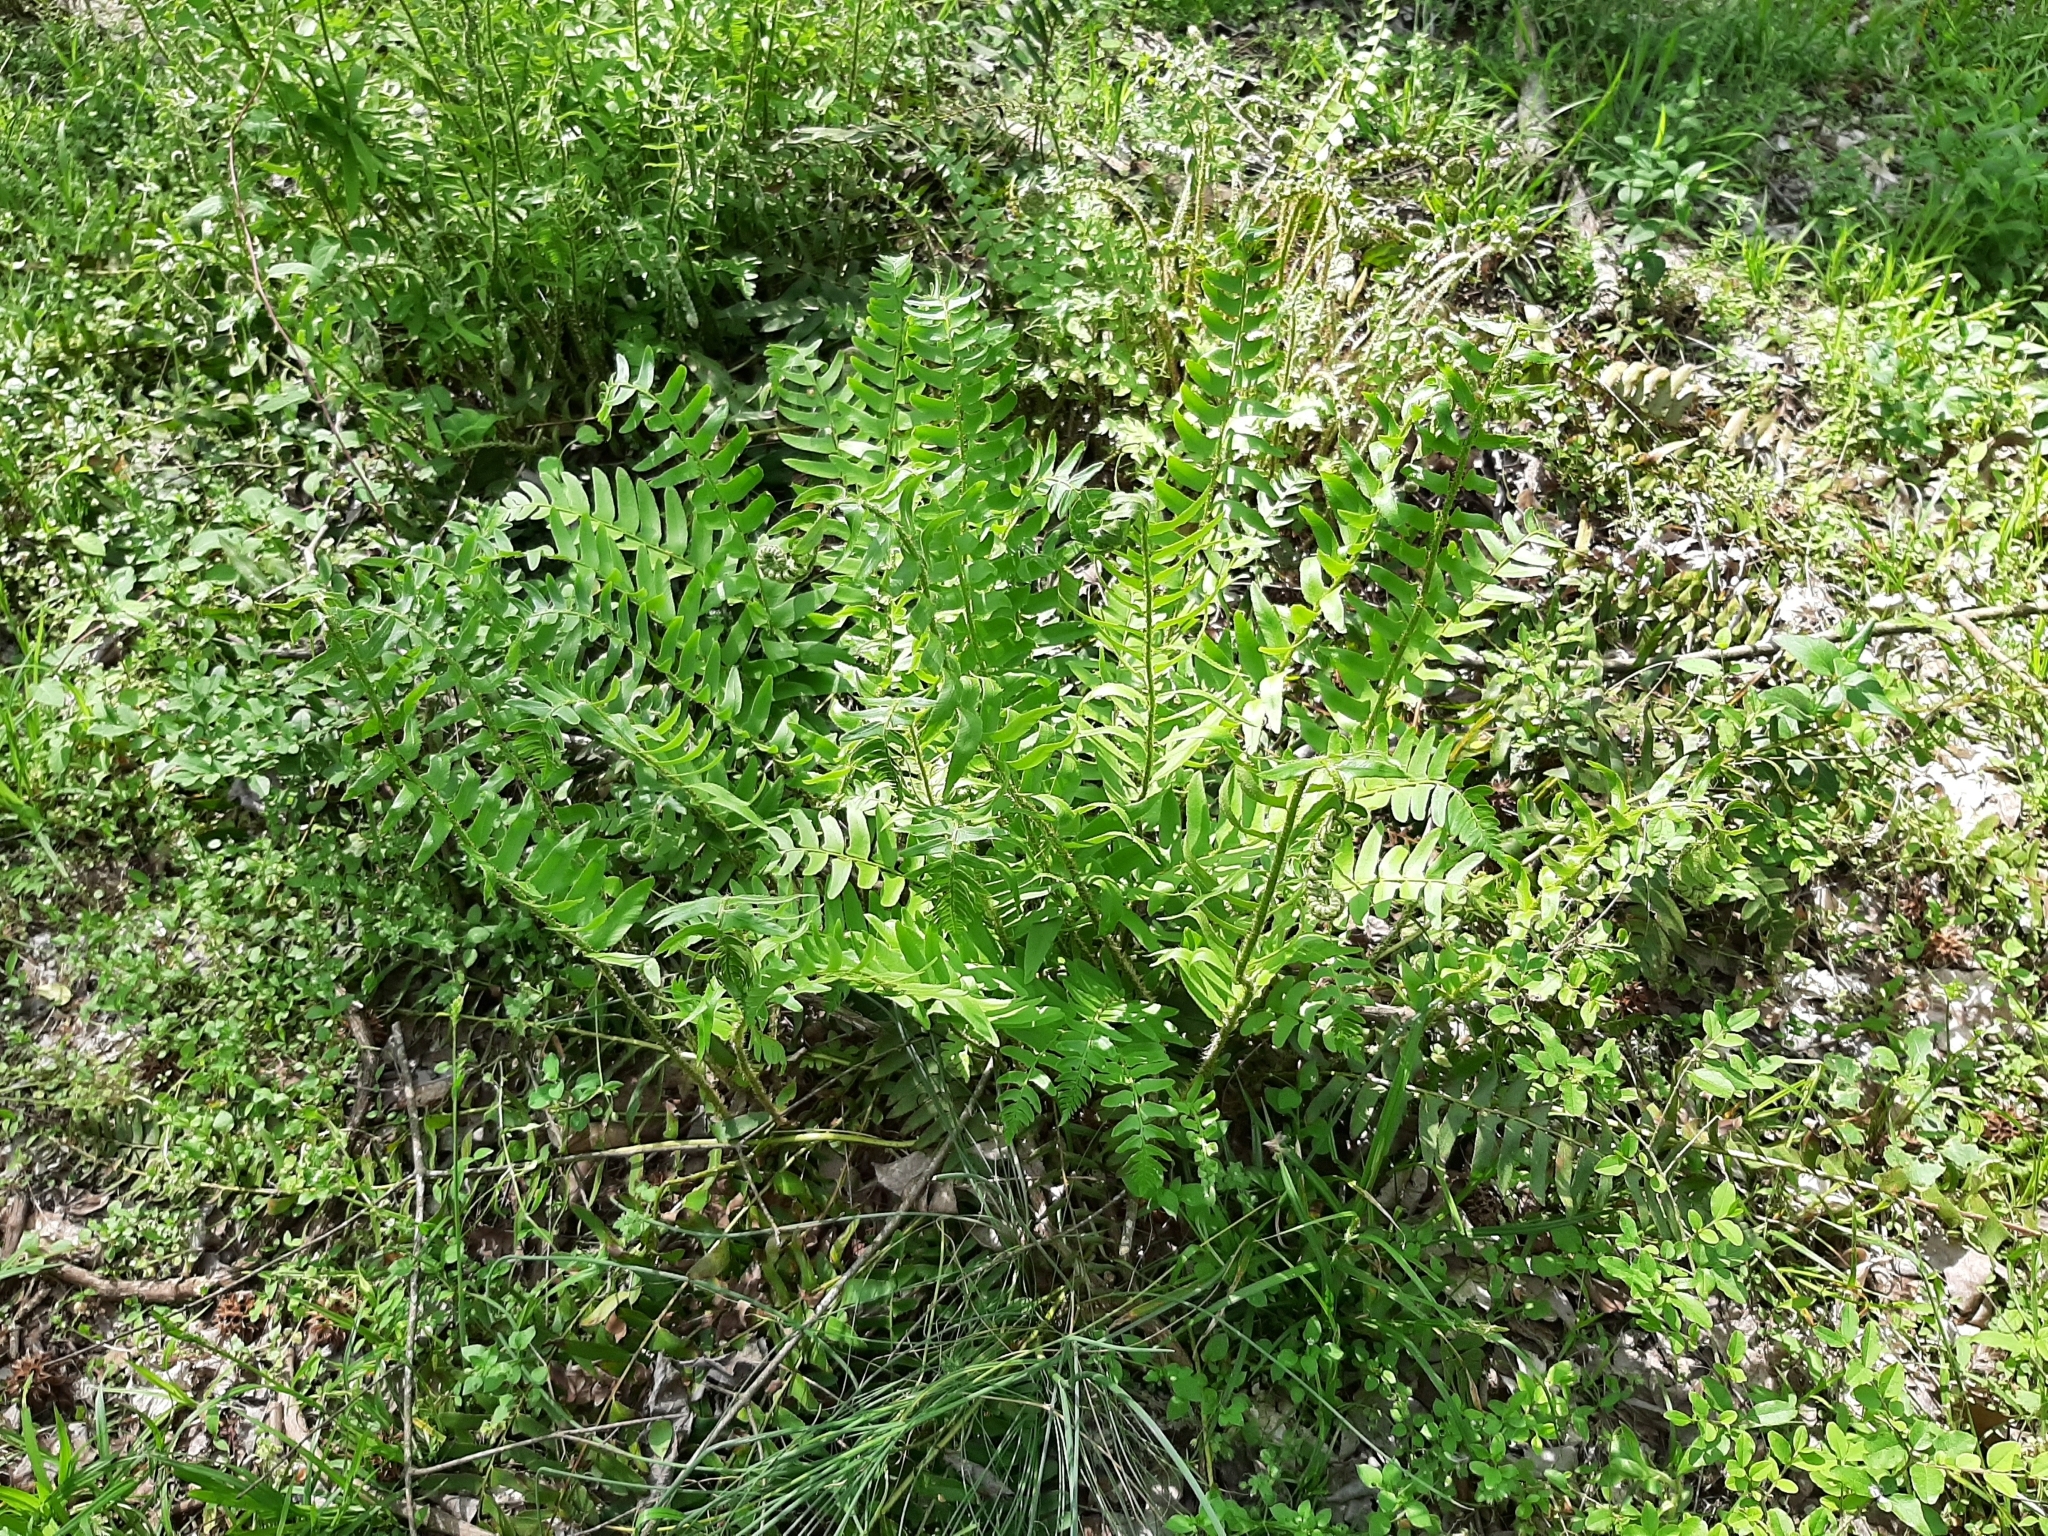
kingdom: Plantae
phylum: Tracheophyta
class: Polypodiopsida
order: Polypodiales
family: Dryopteridaceae
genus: Polystichum
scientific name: Polystichum acrostichoides
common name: Christmas fern
